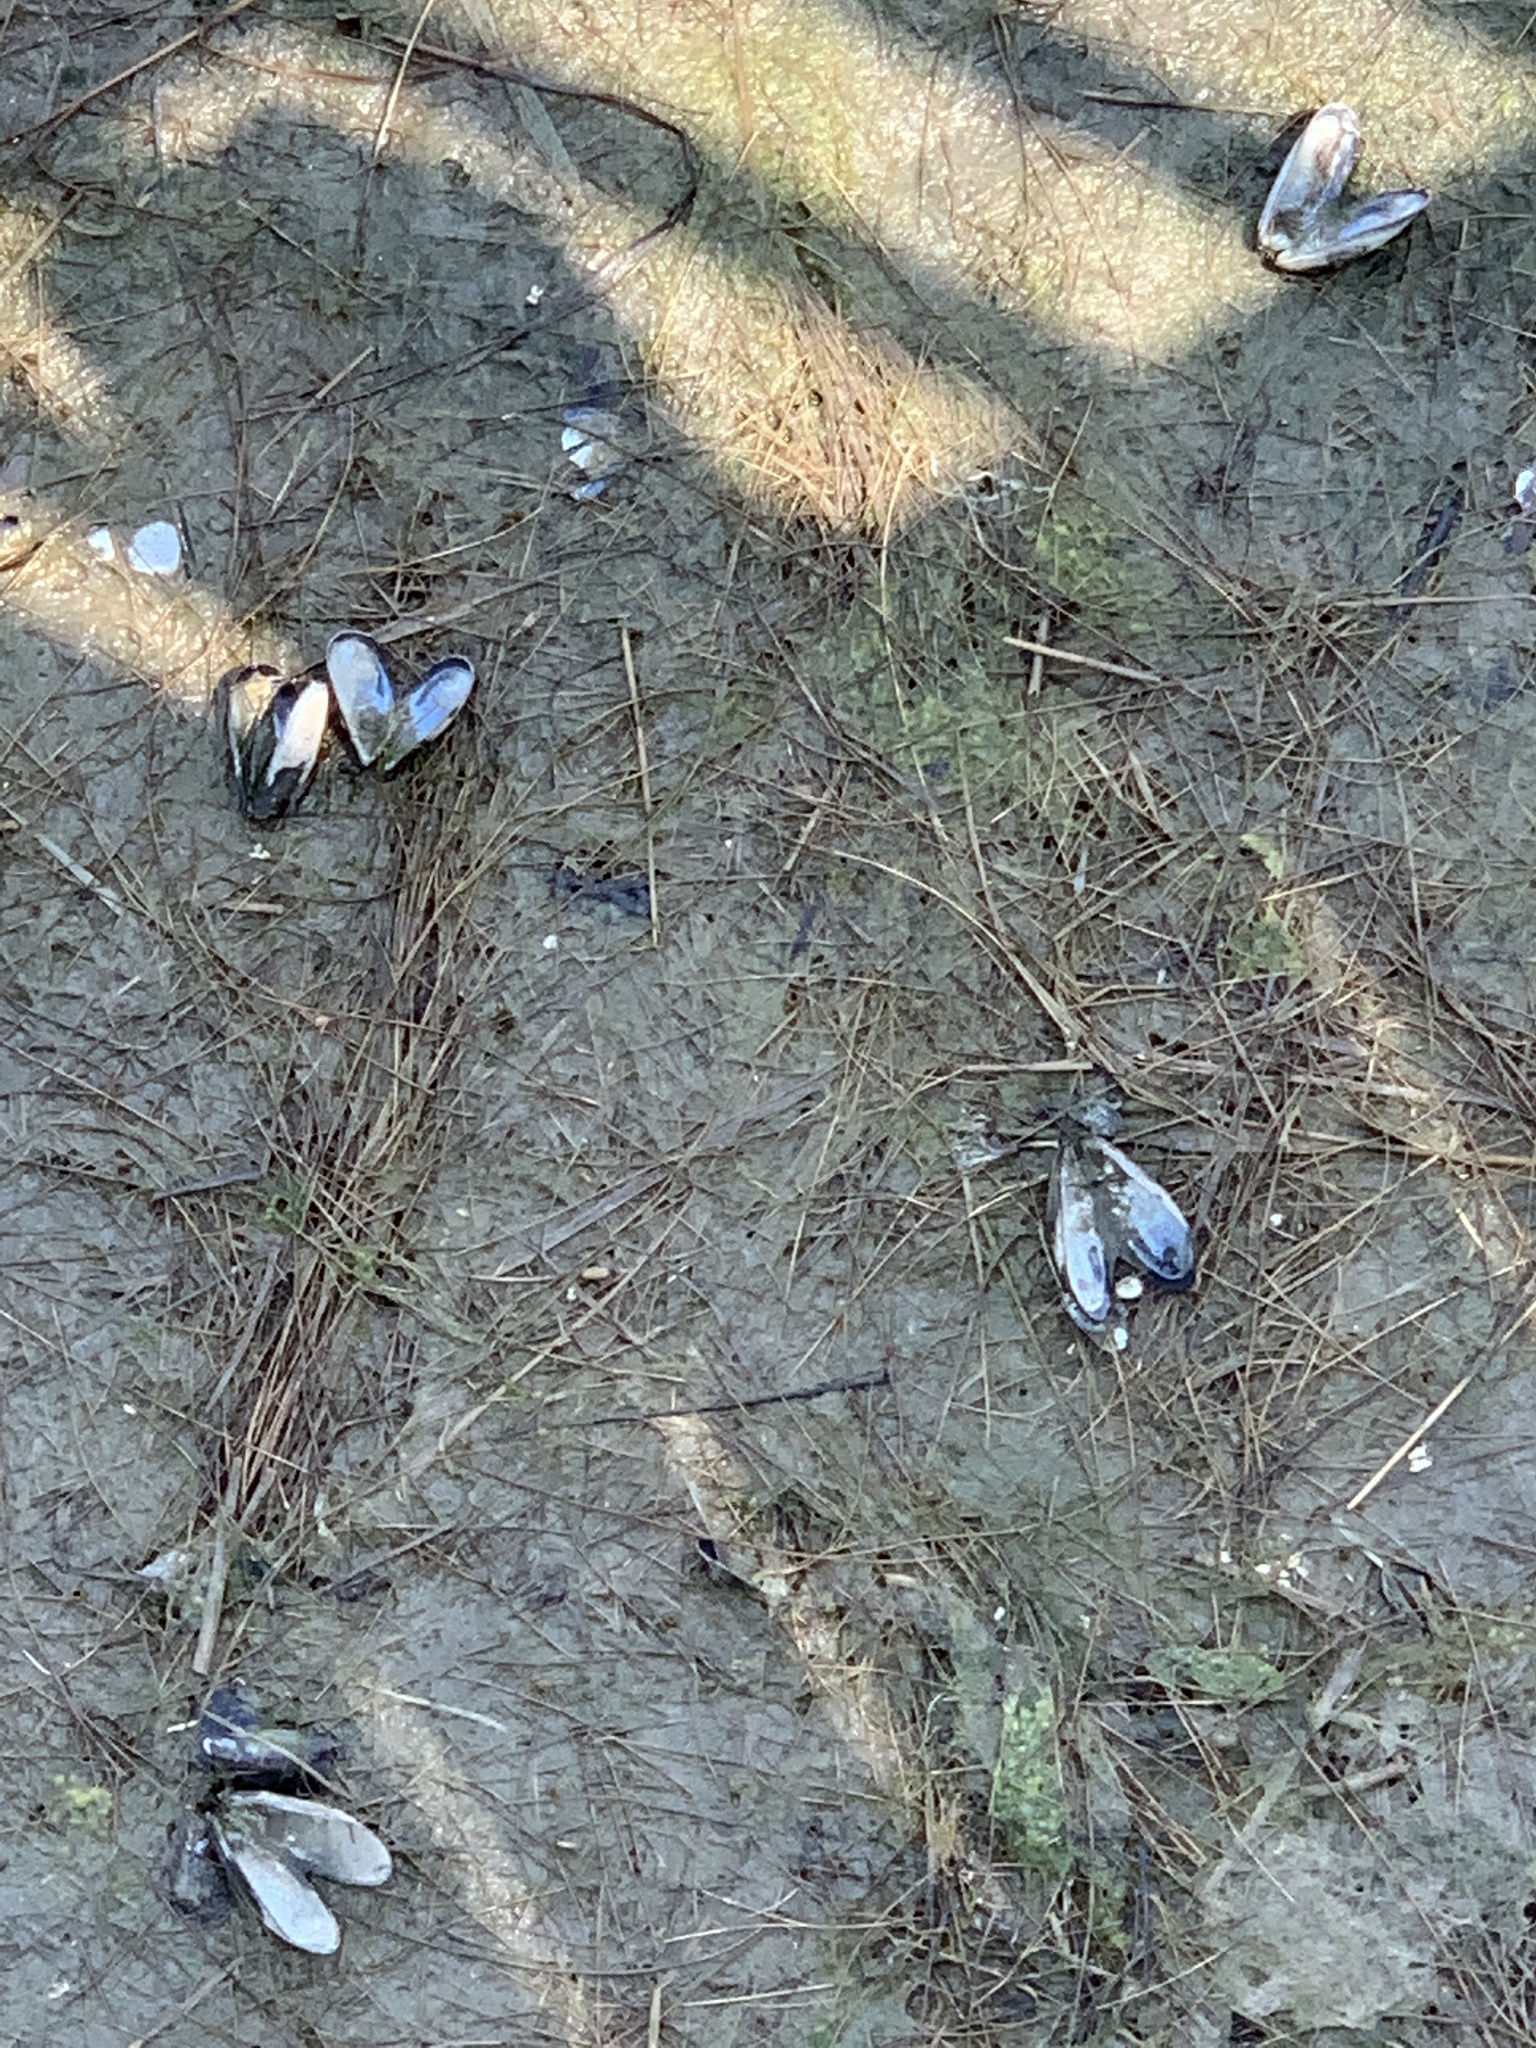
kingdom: Animalia
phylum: Mollusca
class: Bivalvia
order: Mytilida
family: Mytilidae
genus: Mytilus
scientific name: Mytilus edulis
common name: Blue mussel
